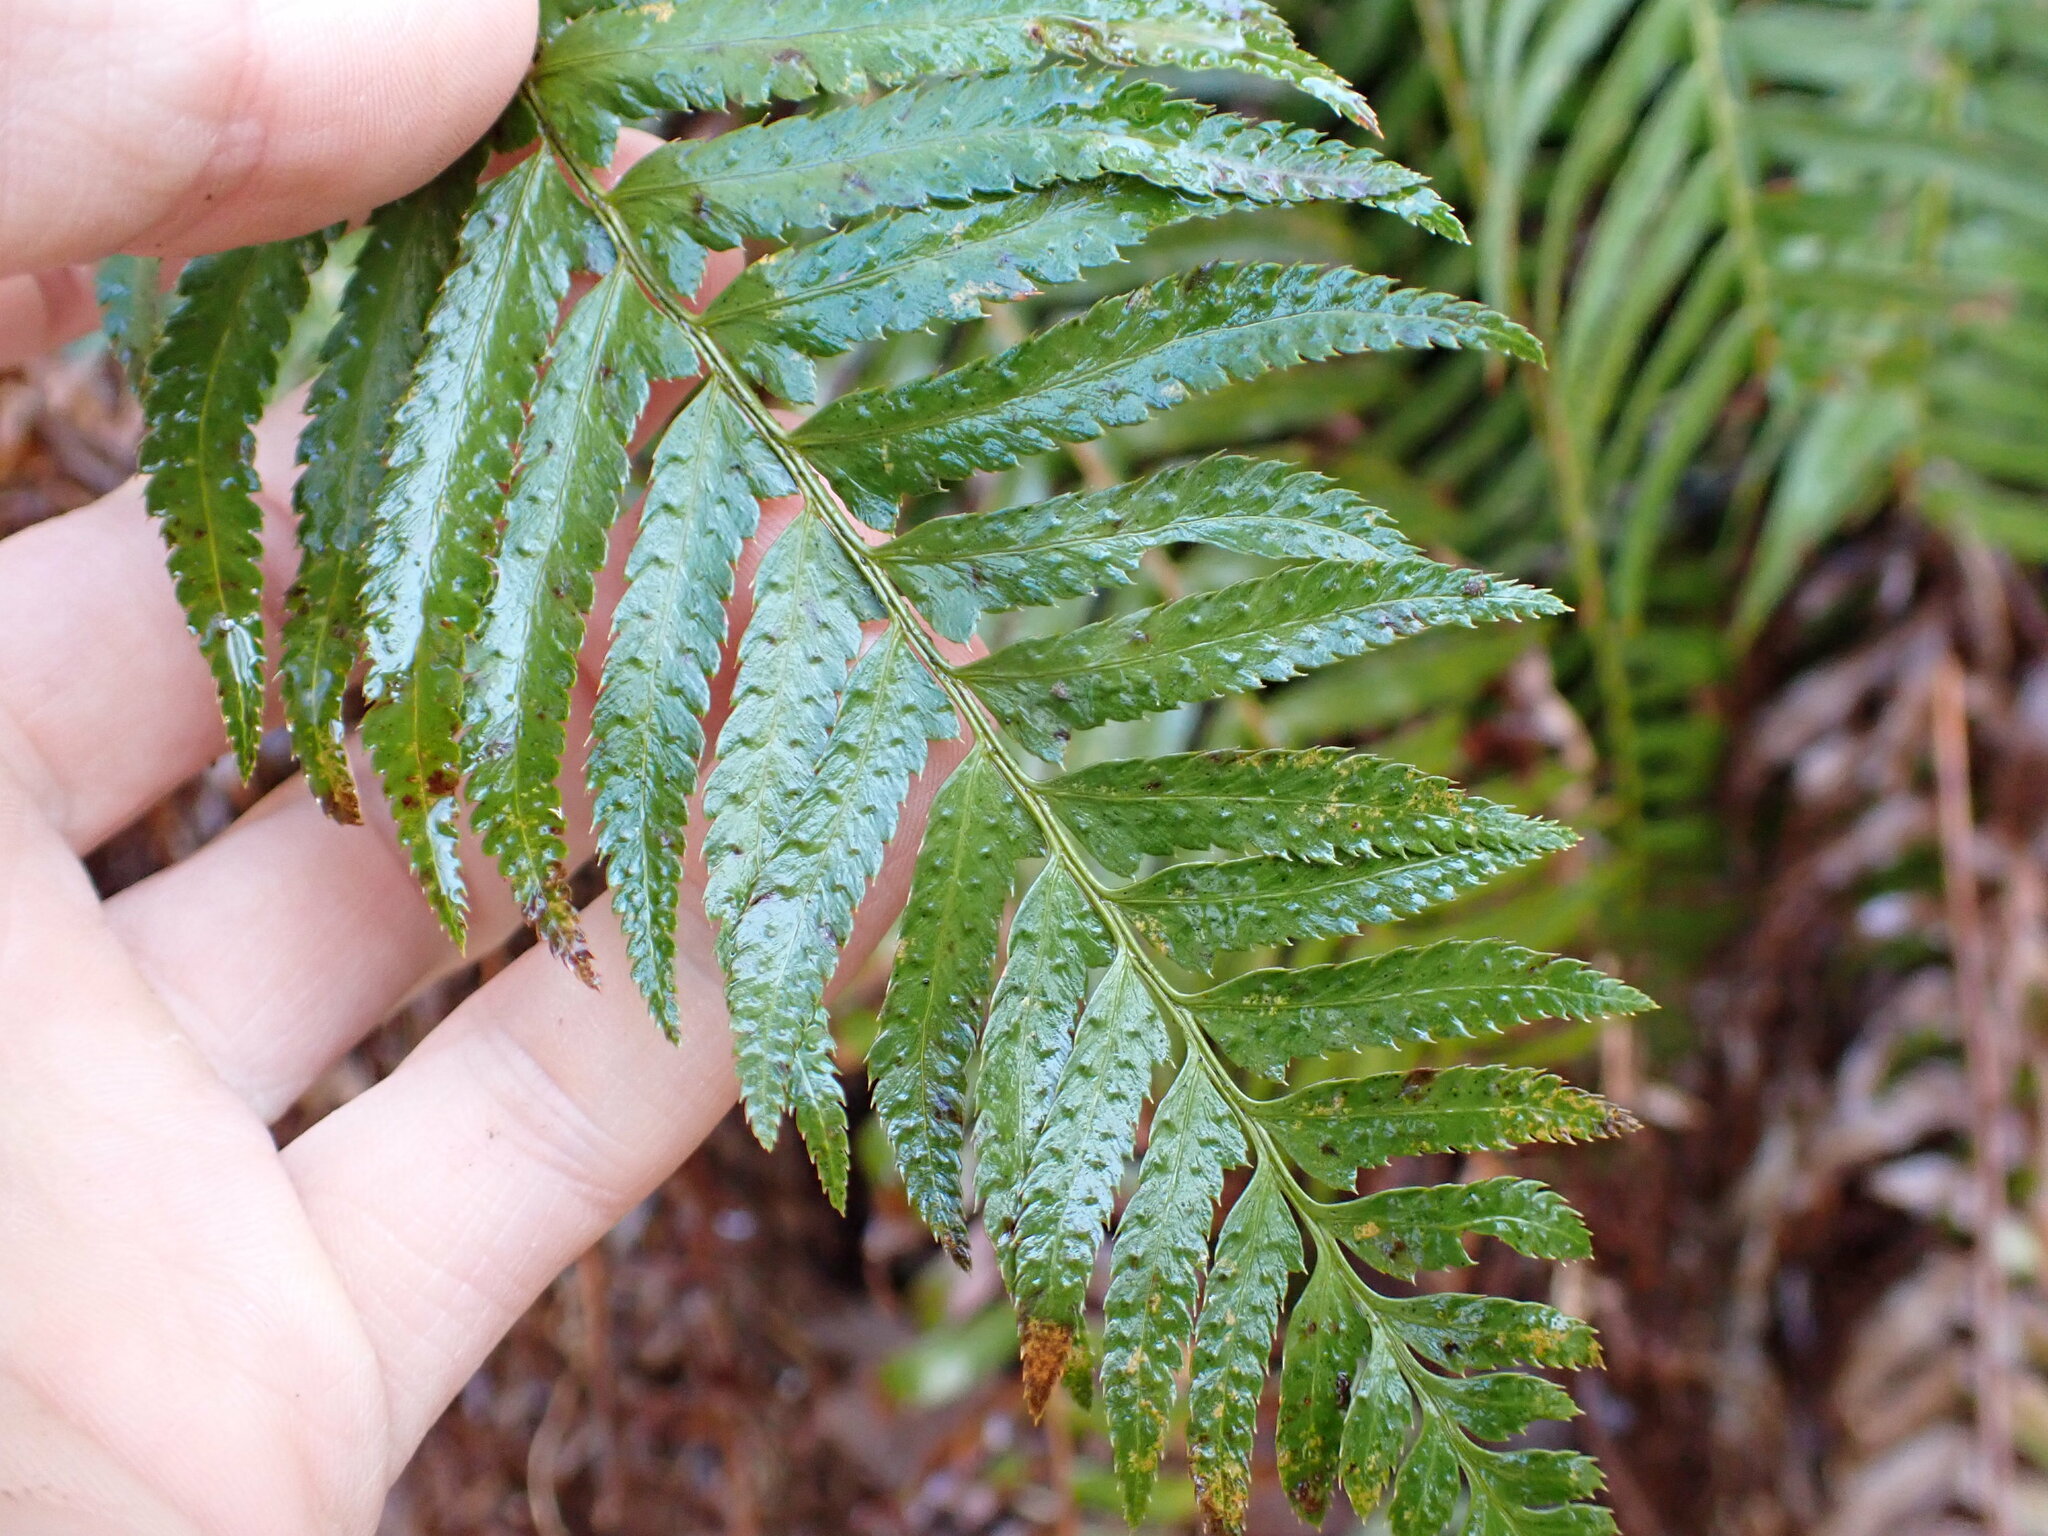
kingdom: Plantae
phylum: Tracheophyta
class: Polypodiopsida
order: Polypodiales
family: Dryopteridaceae
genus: Polystichum
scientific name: Polystichum munitum
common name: Western sword-fern
